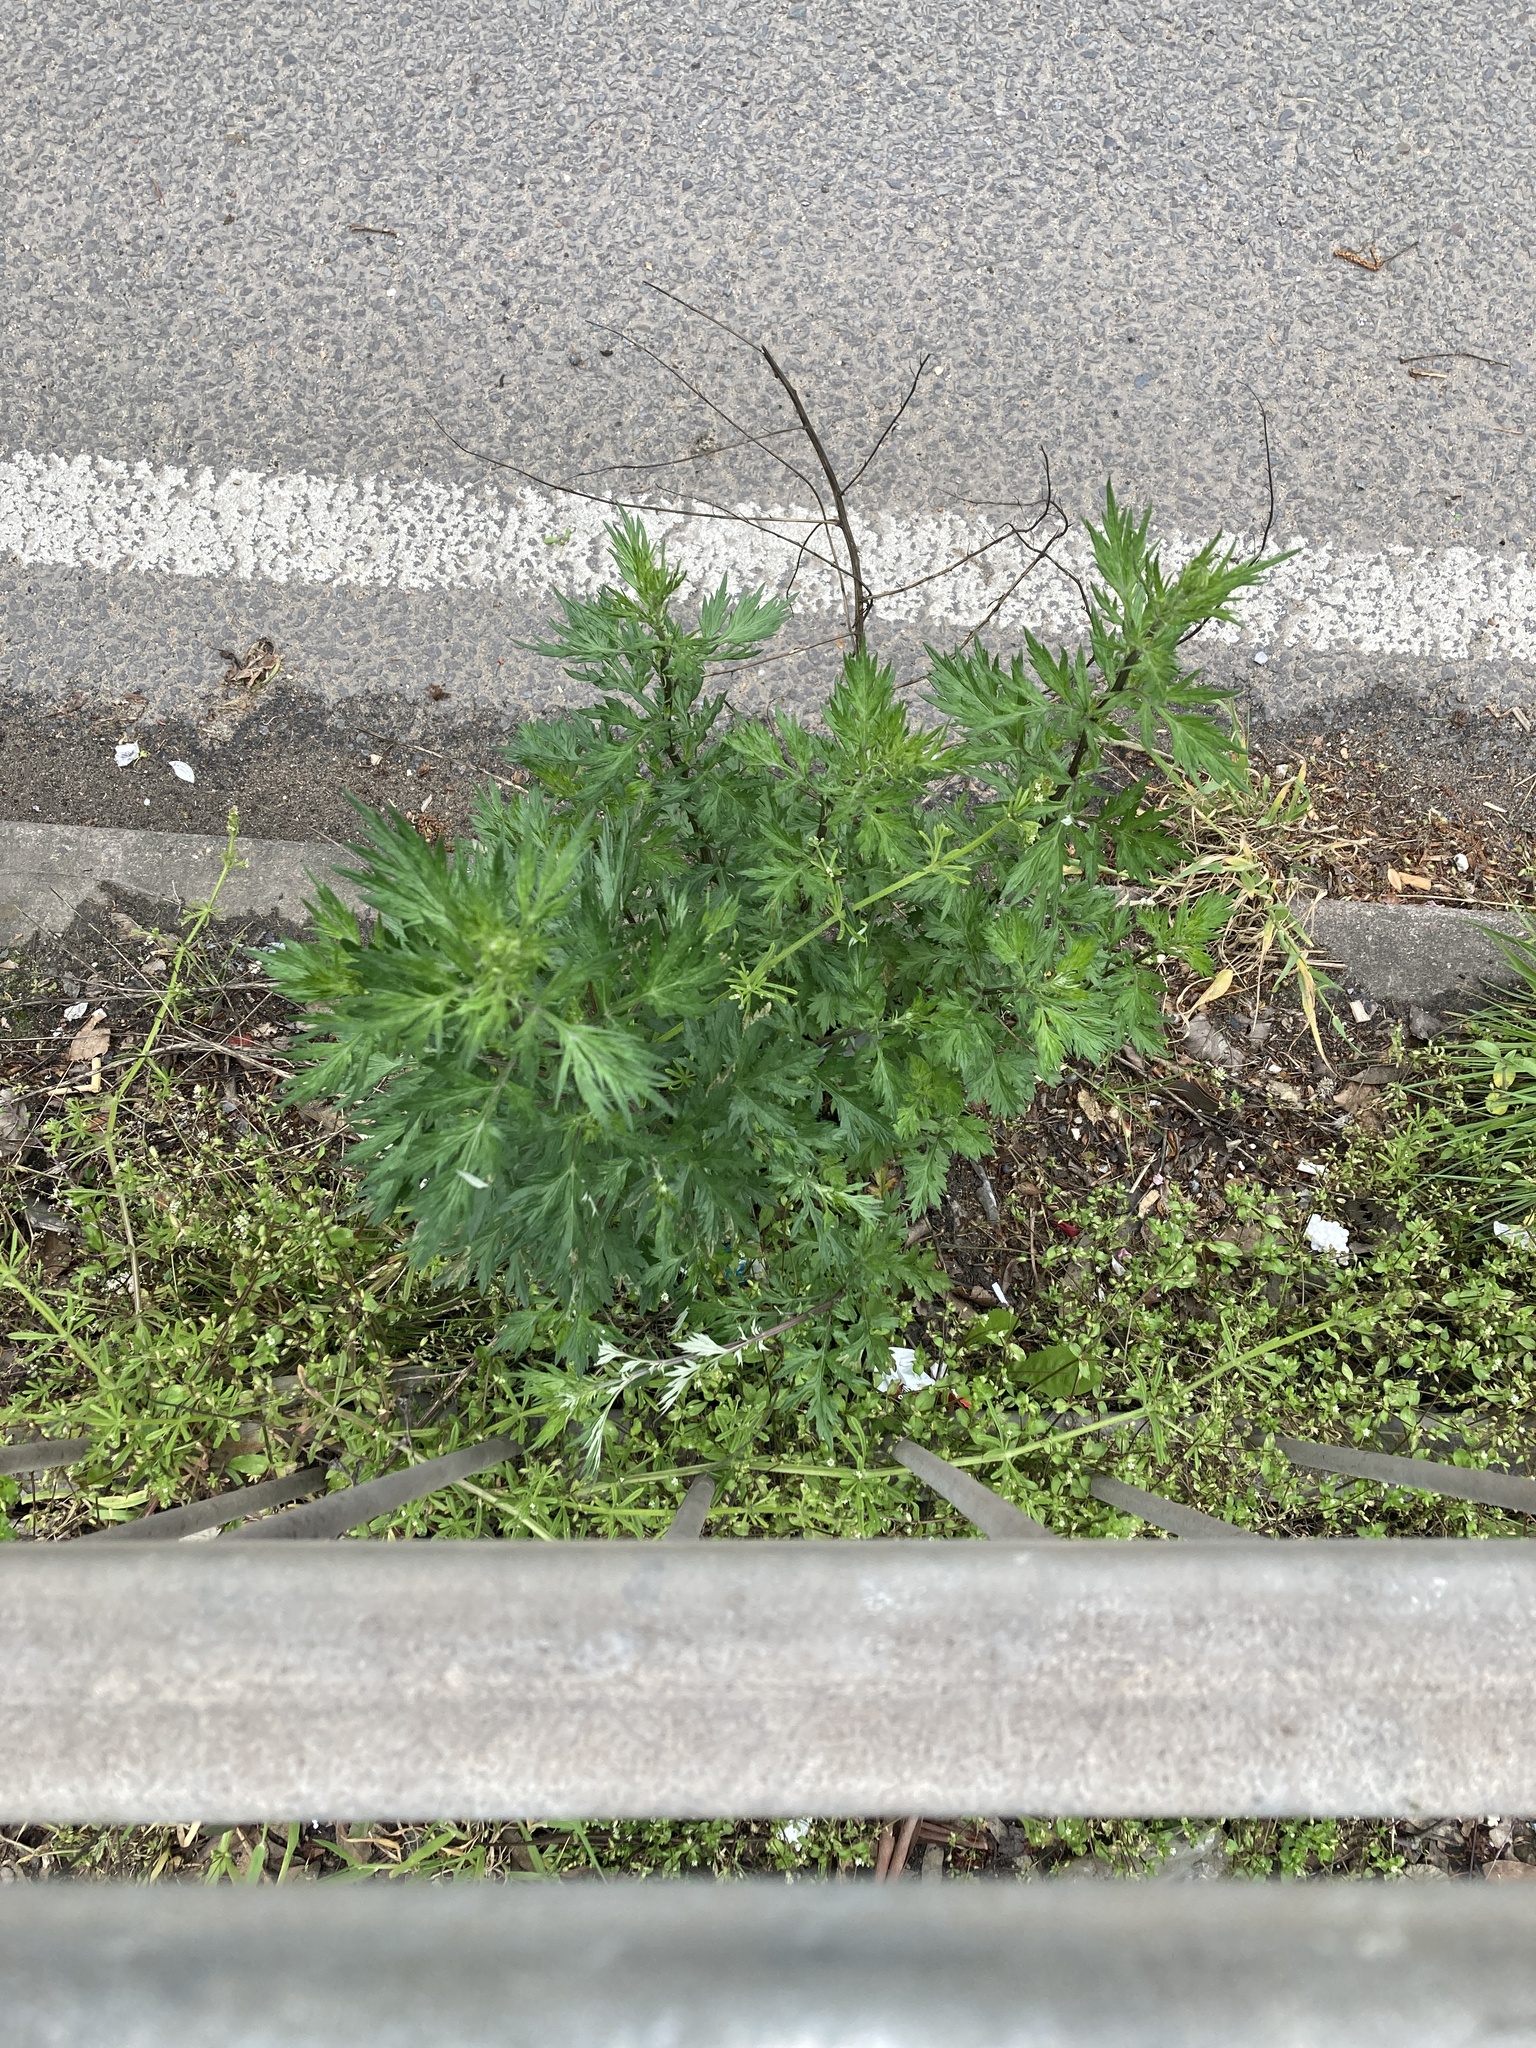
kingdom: Plantae
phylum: Tracheophyta
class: Magnoliopsida
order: Asterales
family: Asteraceae
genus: Artemisia
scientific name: Artemisia vulgaris
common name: Mugwort
